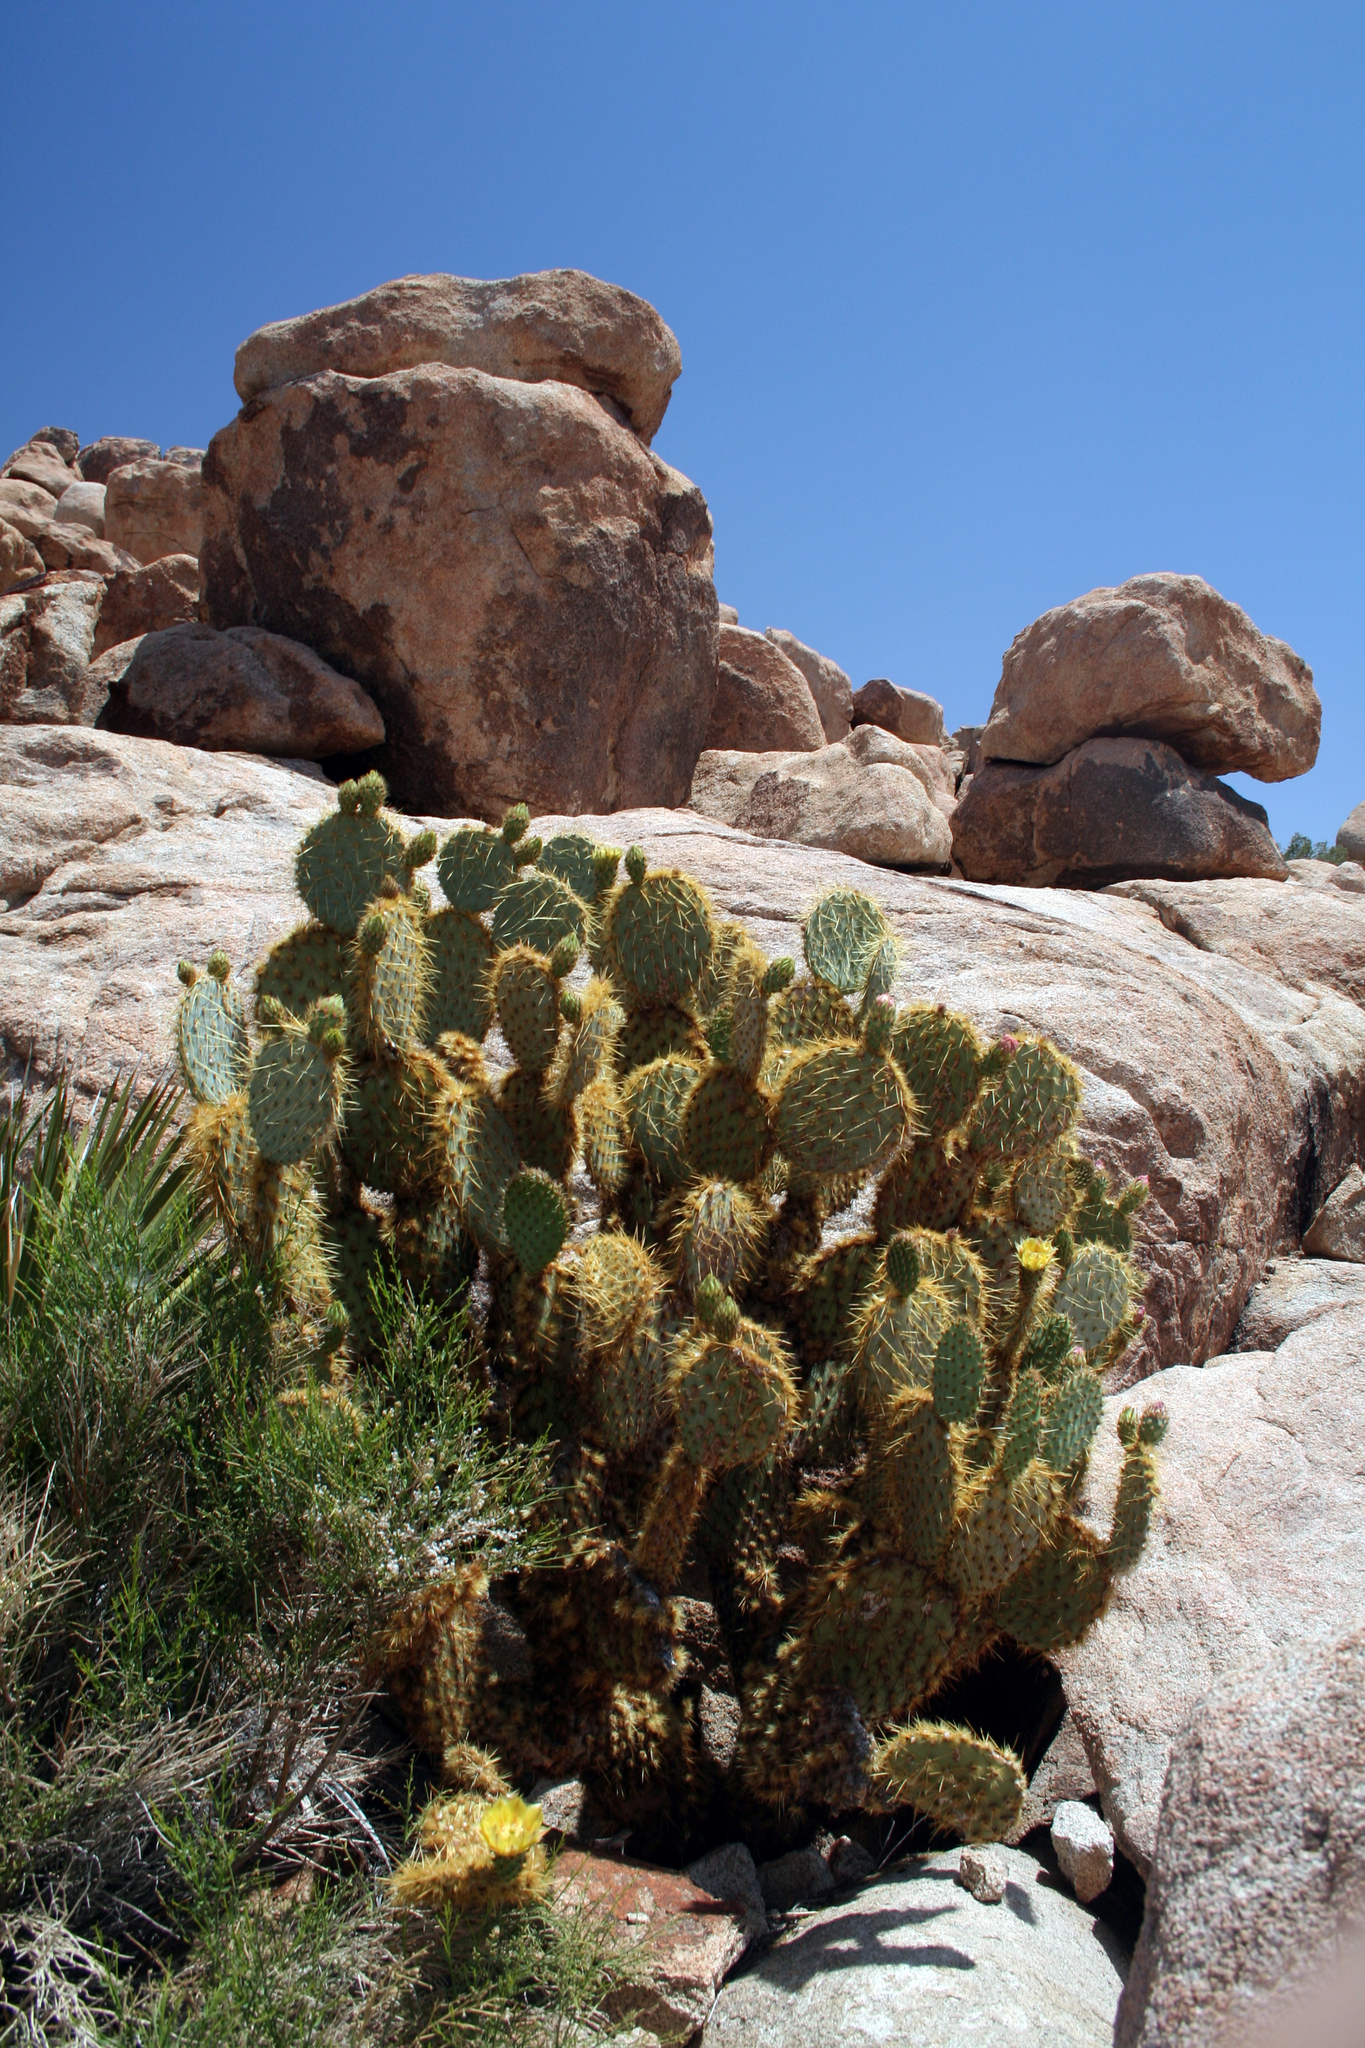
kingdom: Plantae
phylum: Tracheophyta
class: Magnoliopsida
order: Caryophyllales
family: Cactaceae
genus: Opuntia
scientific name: Opuntia chlorotica
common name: Dollar-joint prickly-pear
